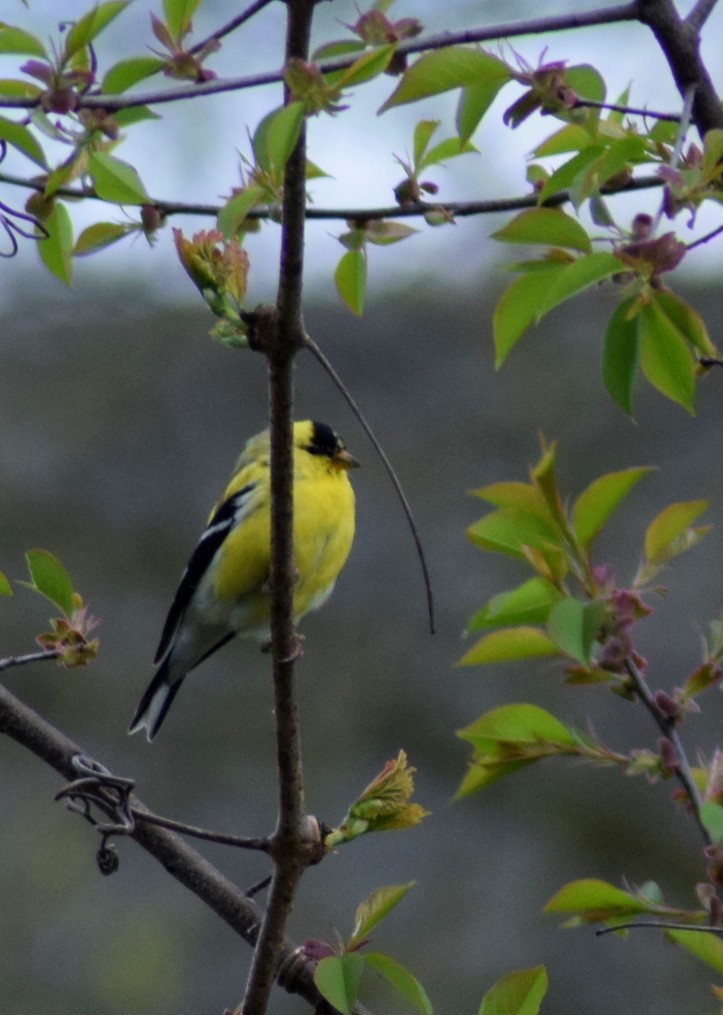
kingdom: Animalia
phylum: Chordata
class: Aves
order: Passeriformes
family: Fringillidae
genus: Spinus
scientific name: Spinus tristis
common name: American goldfinch
